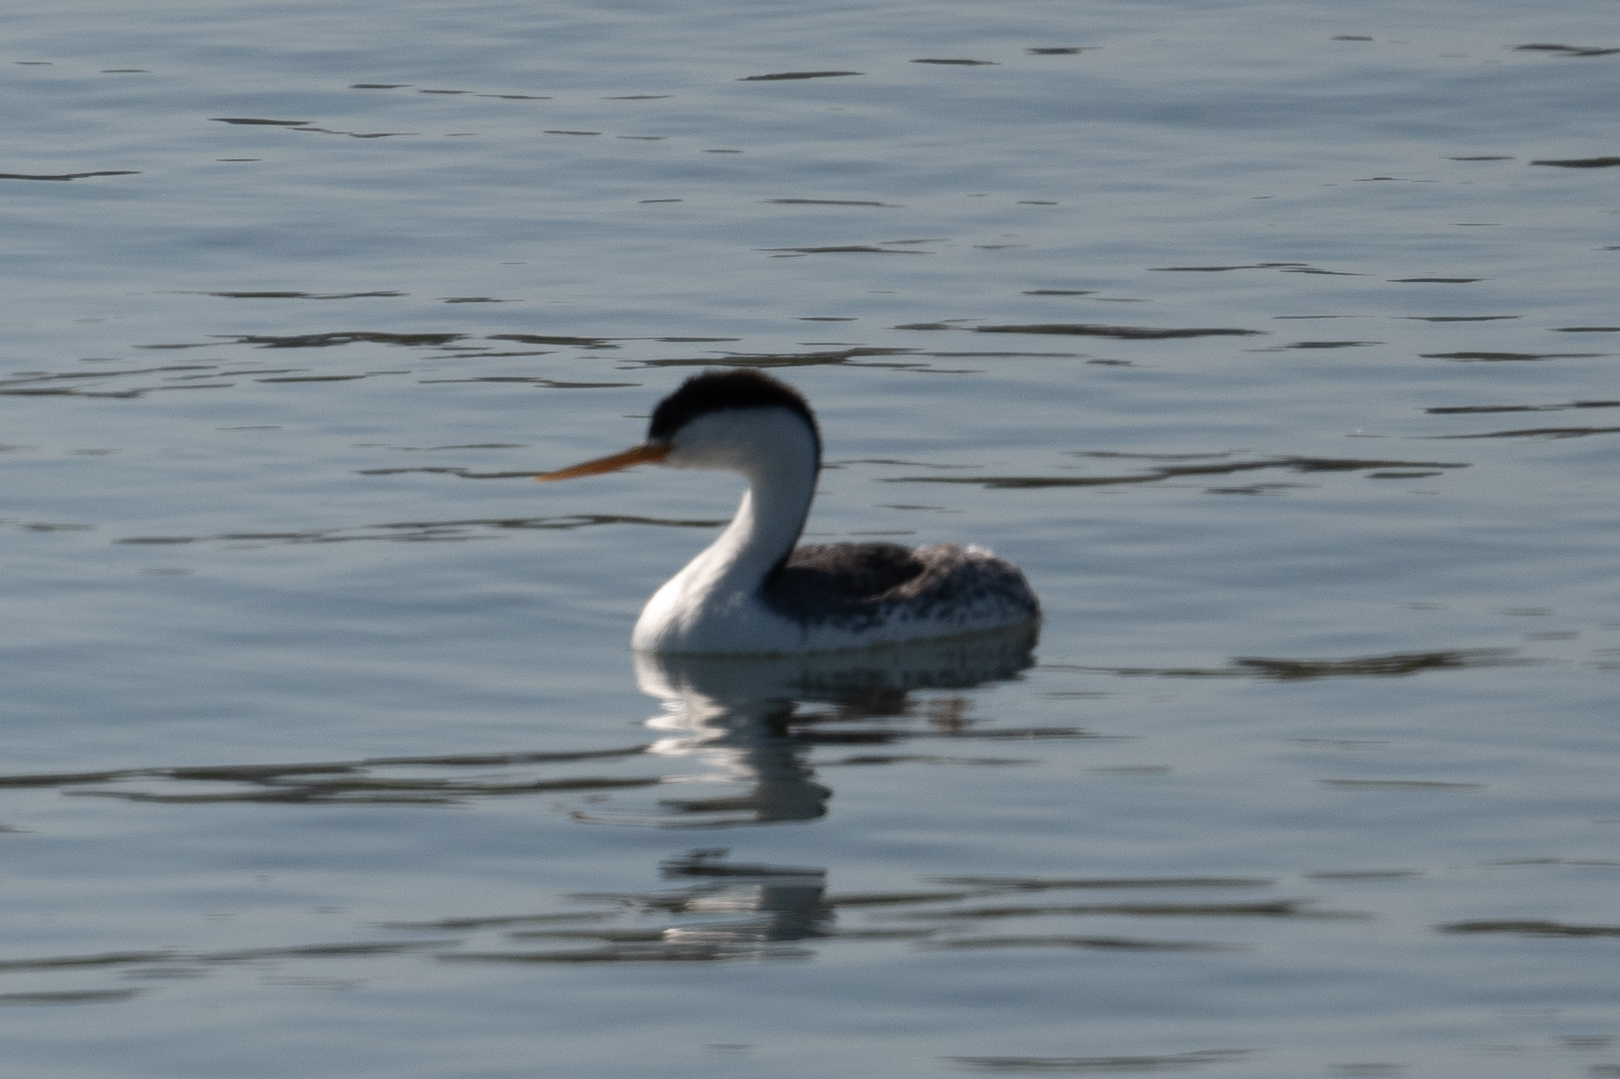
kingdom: Animalia
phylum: Chordata
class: Aves
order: Podicipediformes
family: Podicipedidae
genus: Aechmophorus
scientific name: Aechmophorus occidentalis
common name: Western grebe
